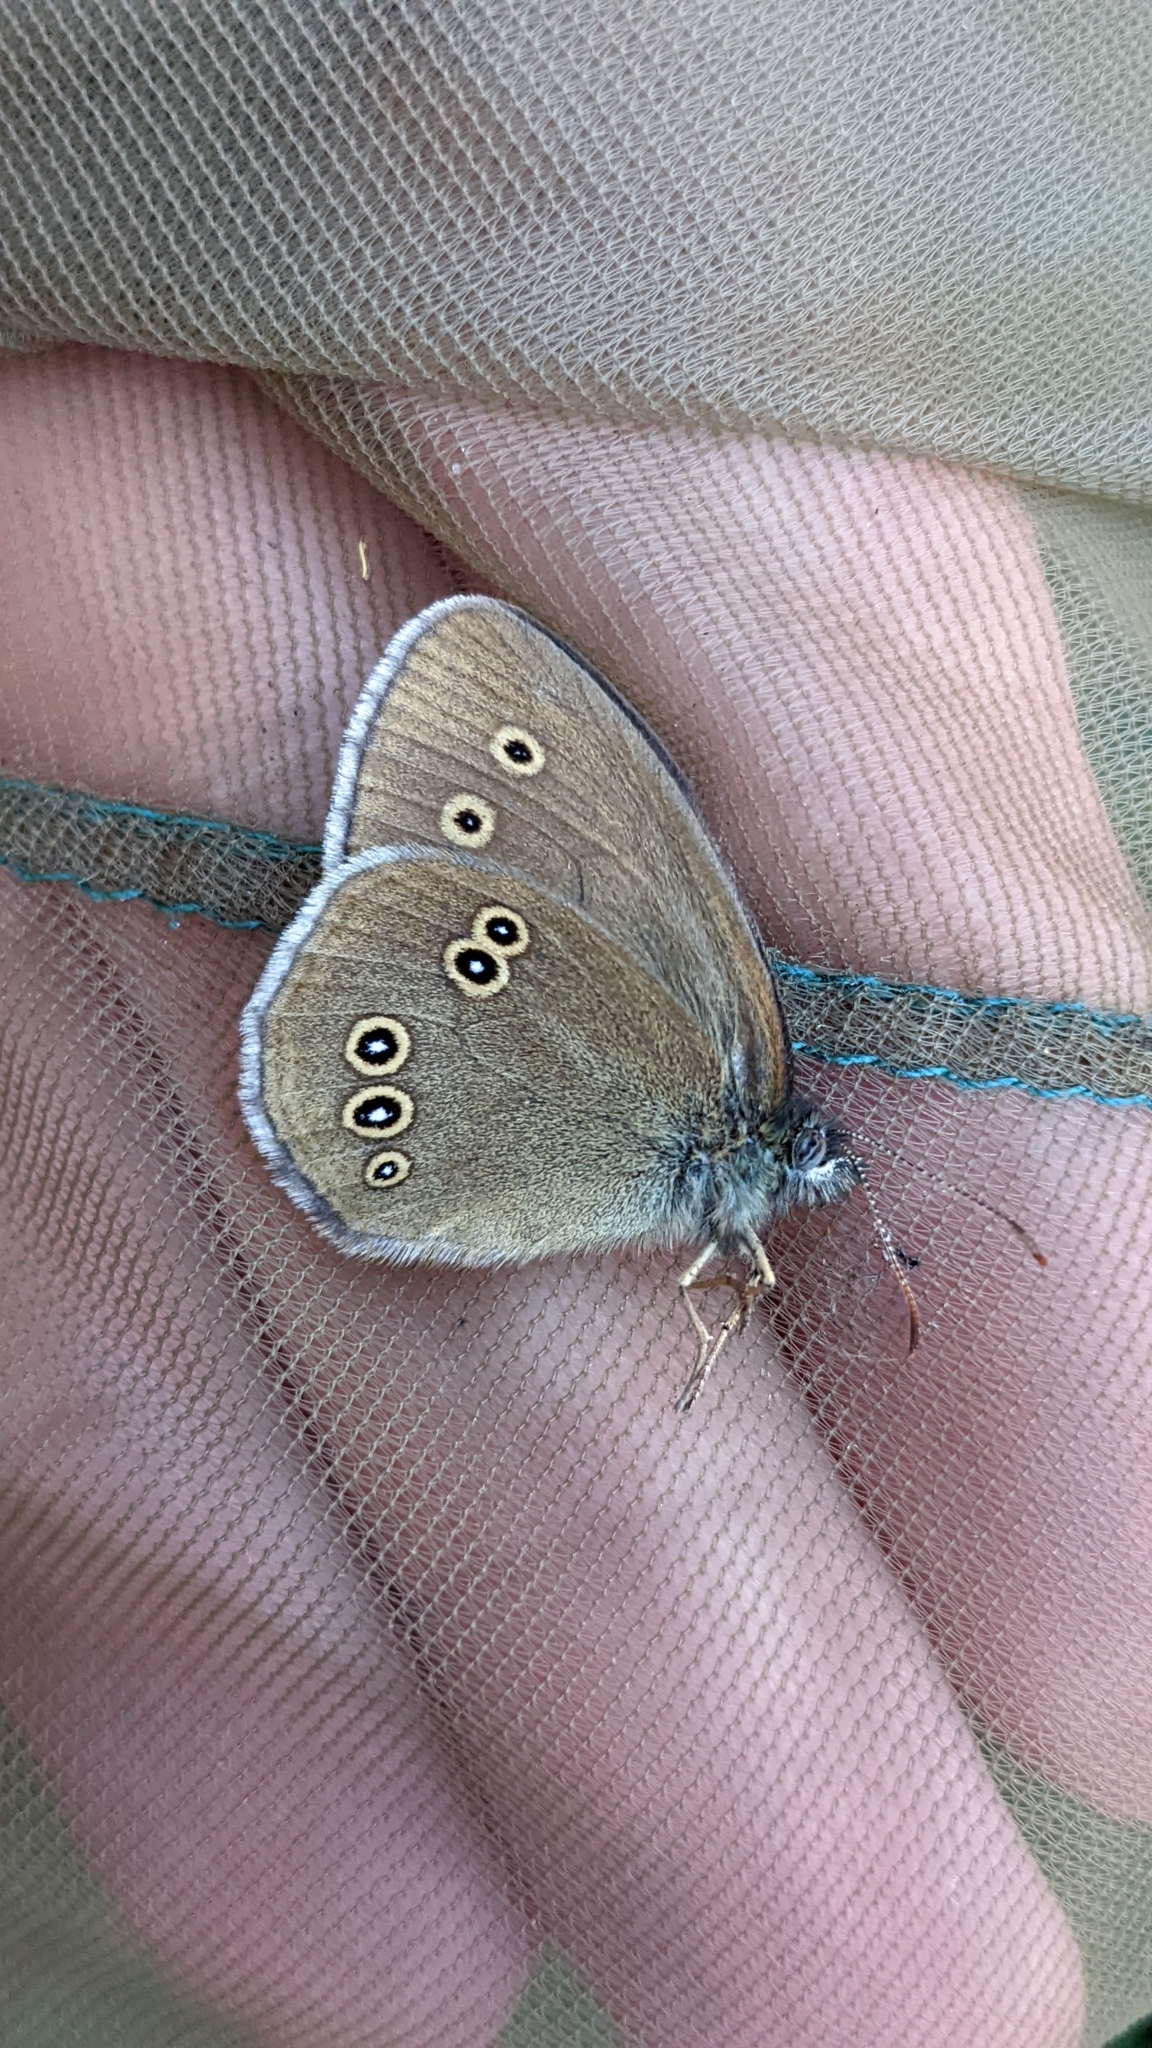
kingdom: Animalia
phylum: Arthropoda
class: Insecta
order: Lepidoptera
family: Nymphalidae
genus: Aphantopus
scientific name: Aphantopus hyperantus
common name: Ringlet
